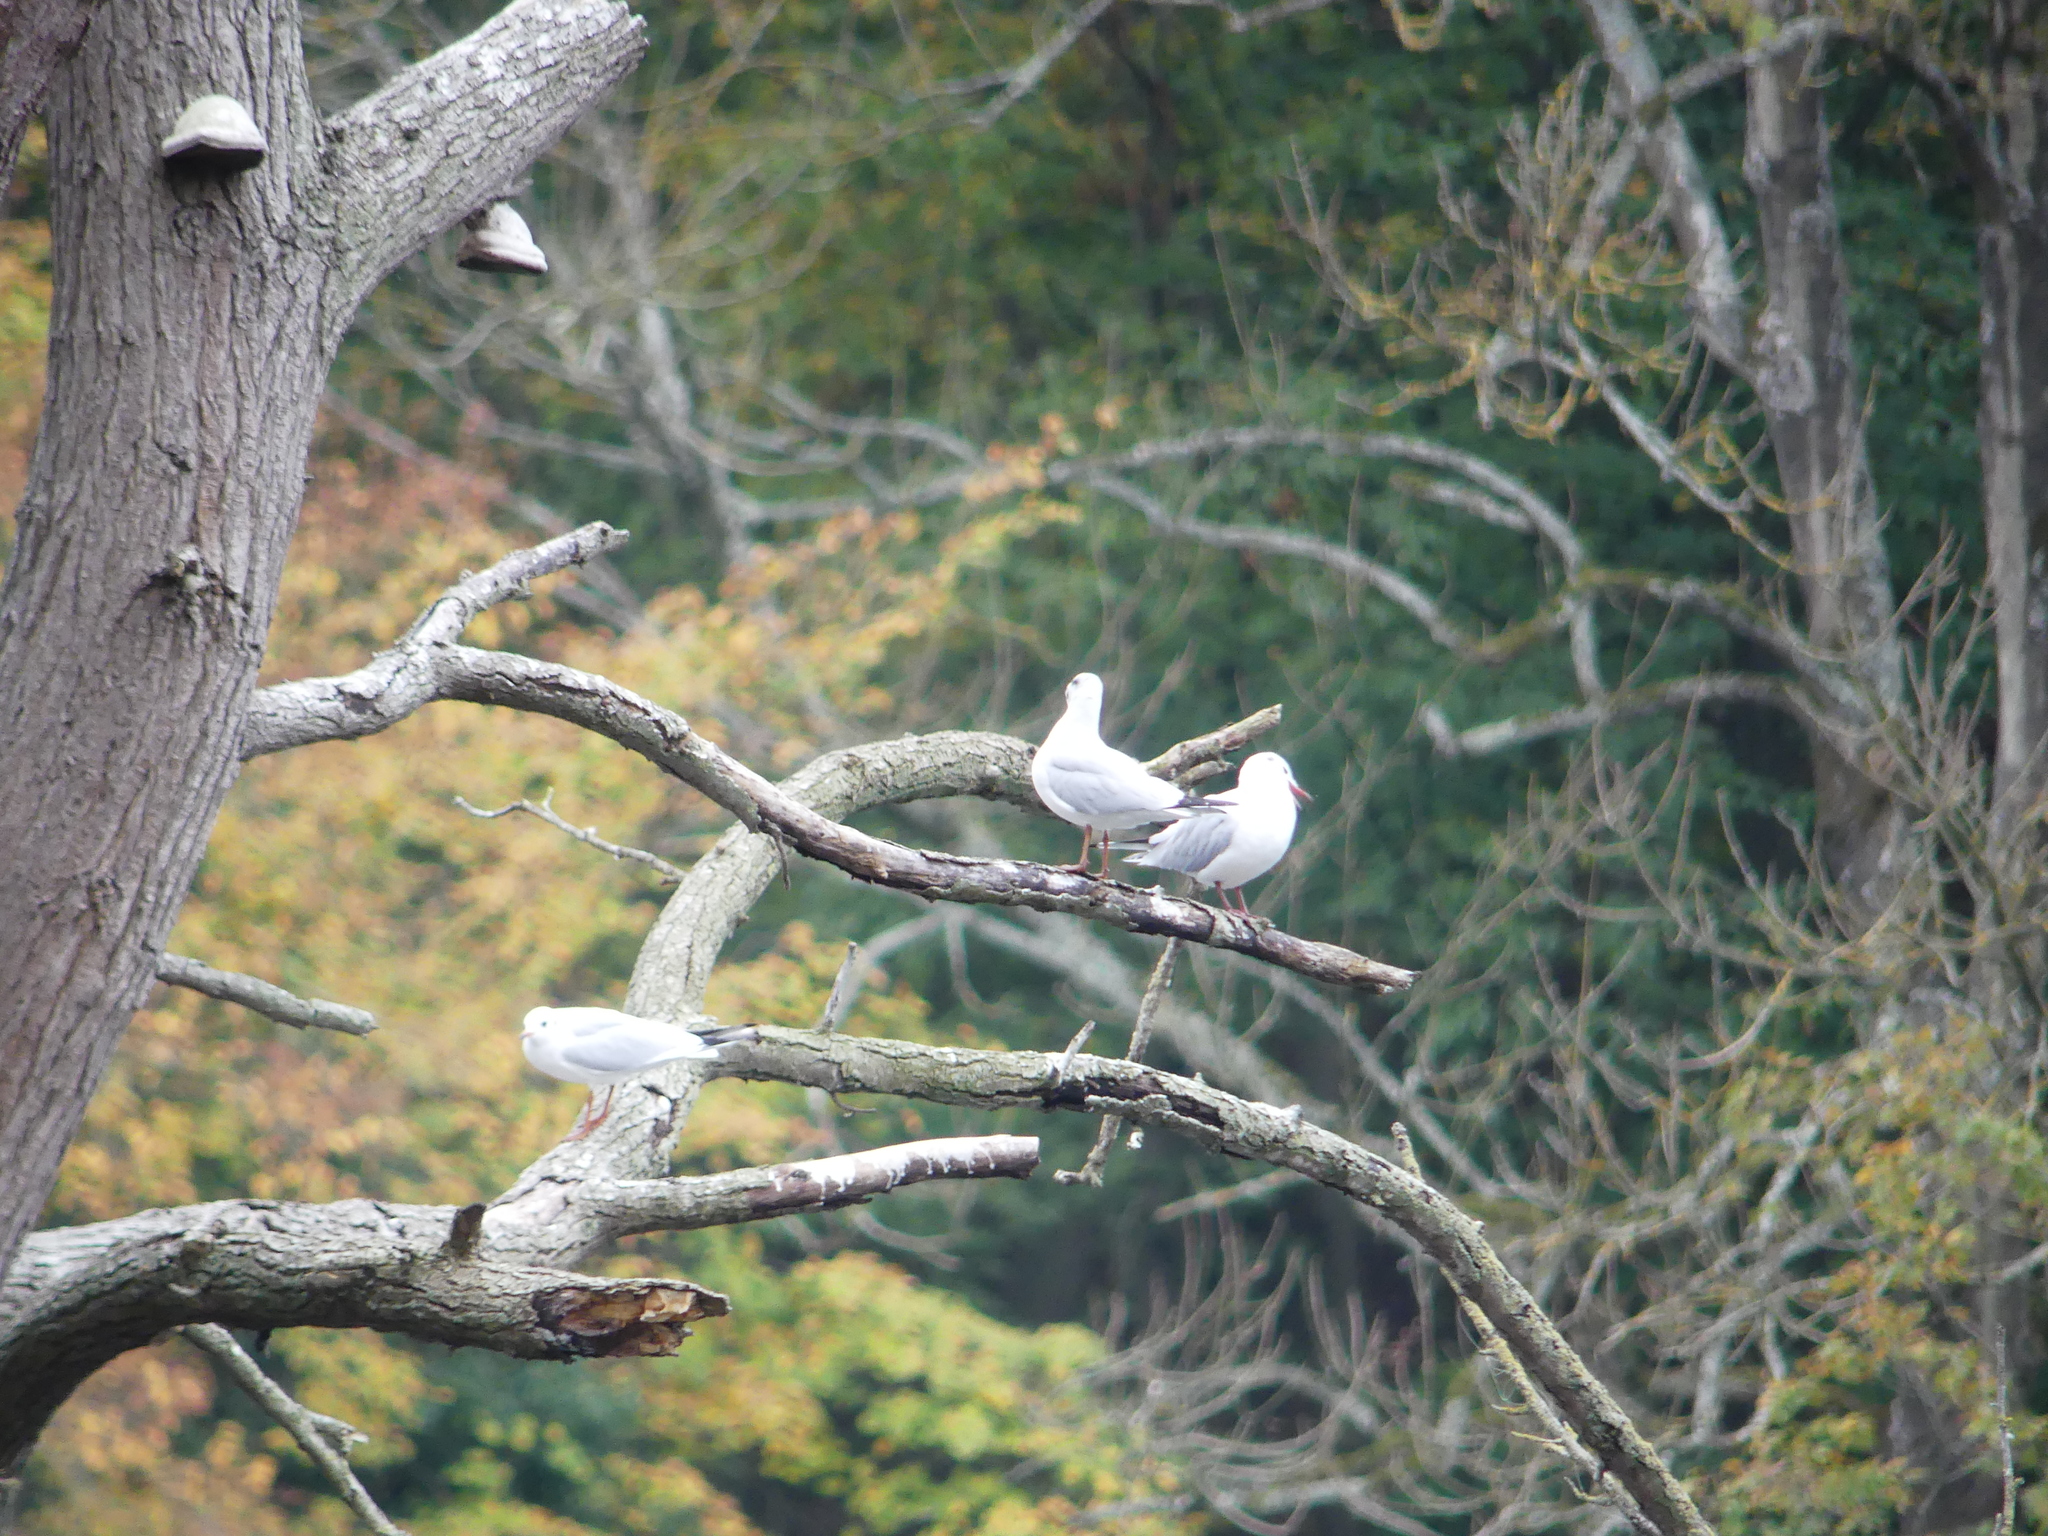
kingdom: Animalia
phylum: Chordata
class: Aves
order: Charadriiformes
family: Laridae
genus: Chroicocephalus
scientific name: Chroicocephalus ridibundus
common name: Black-headed gull
